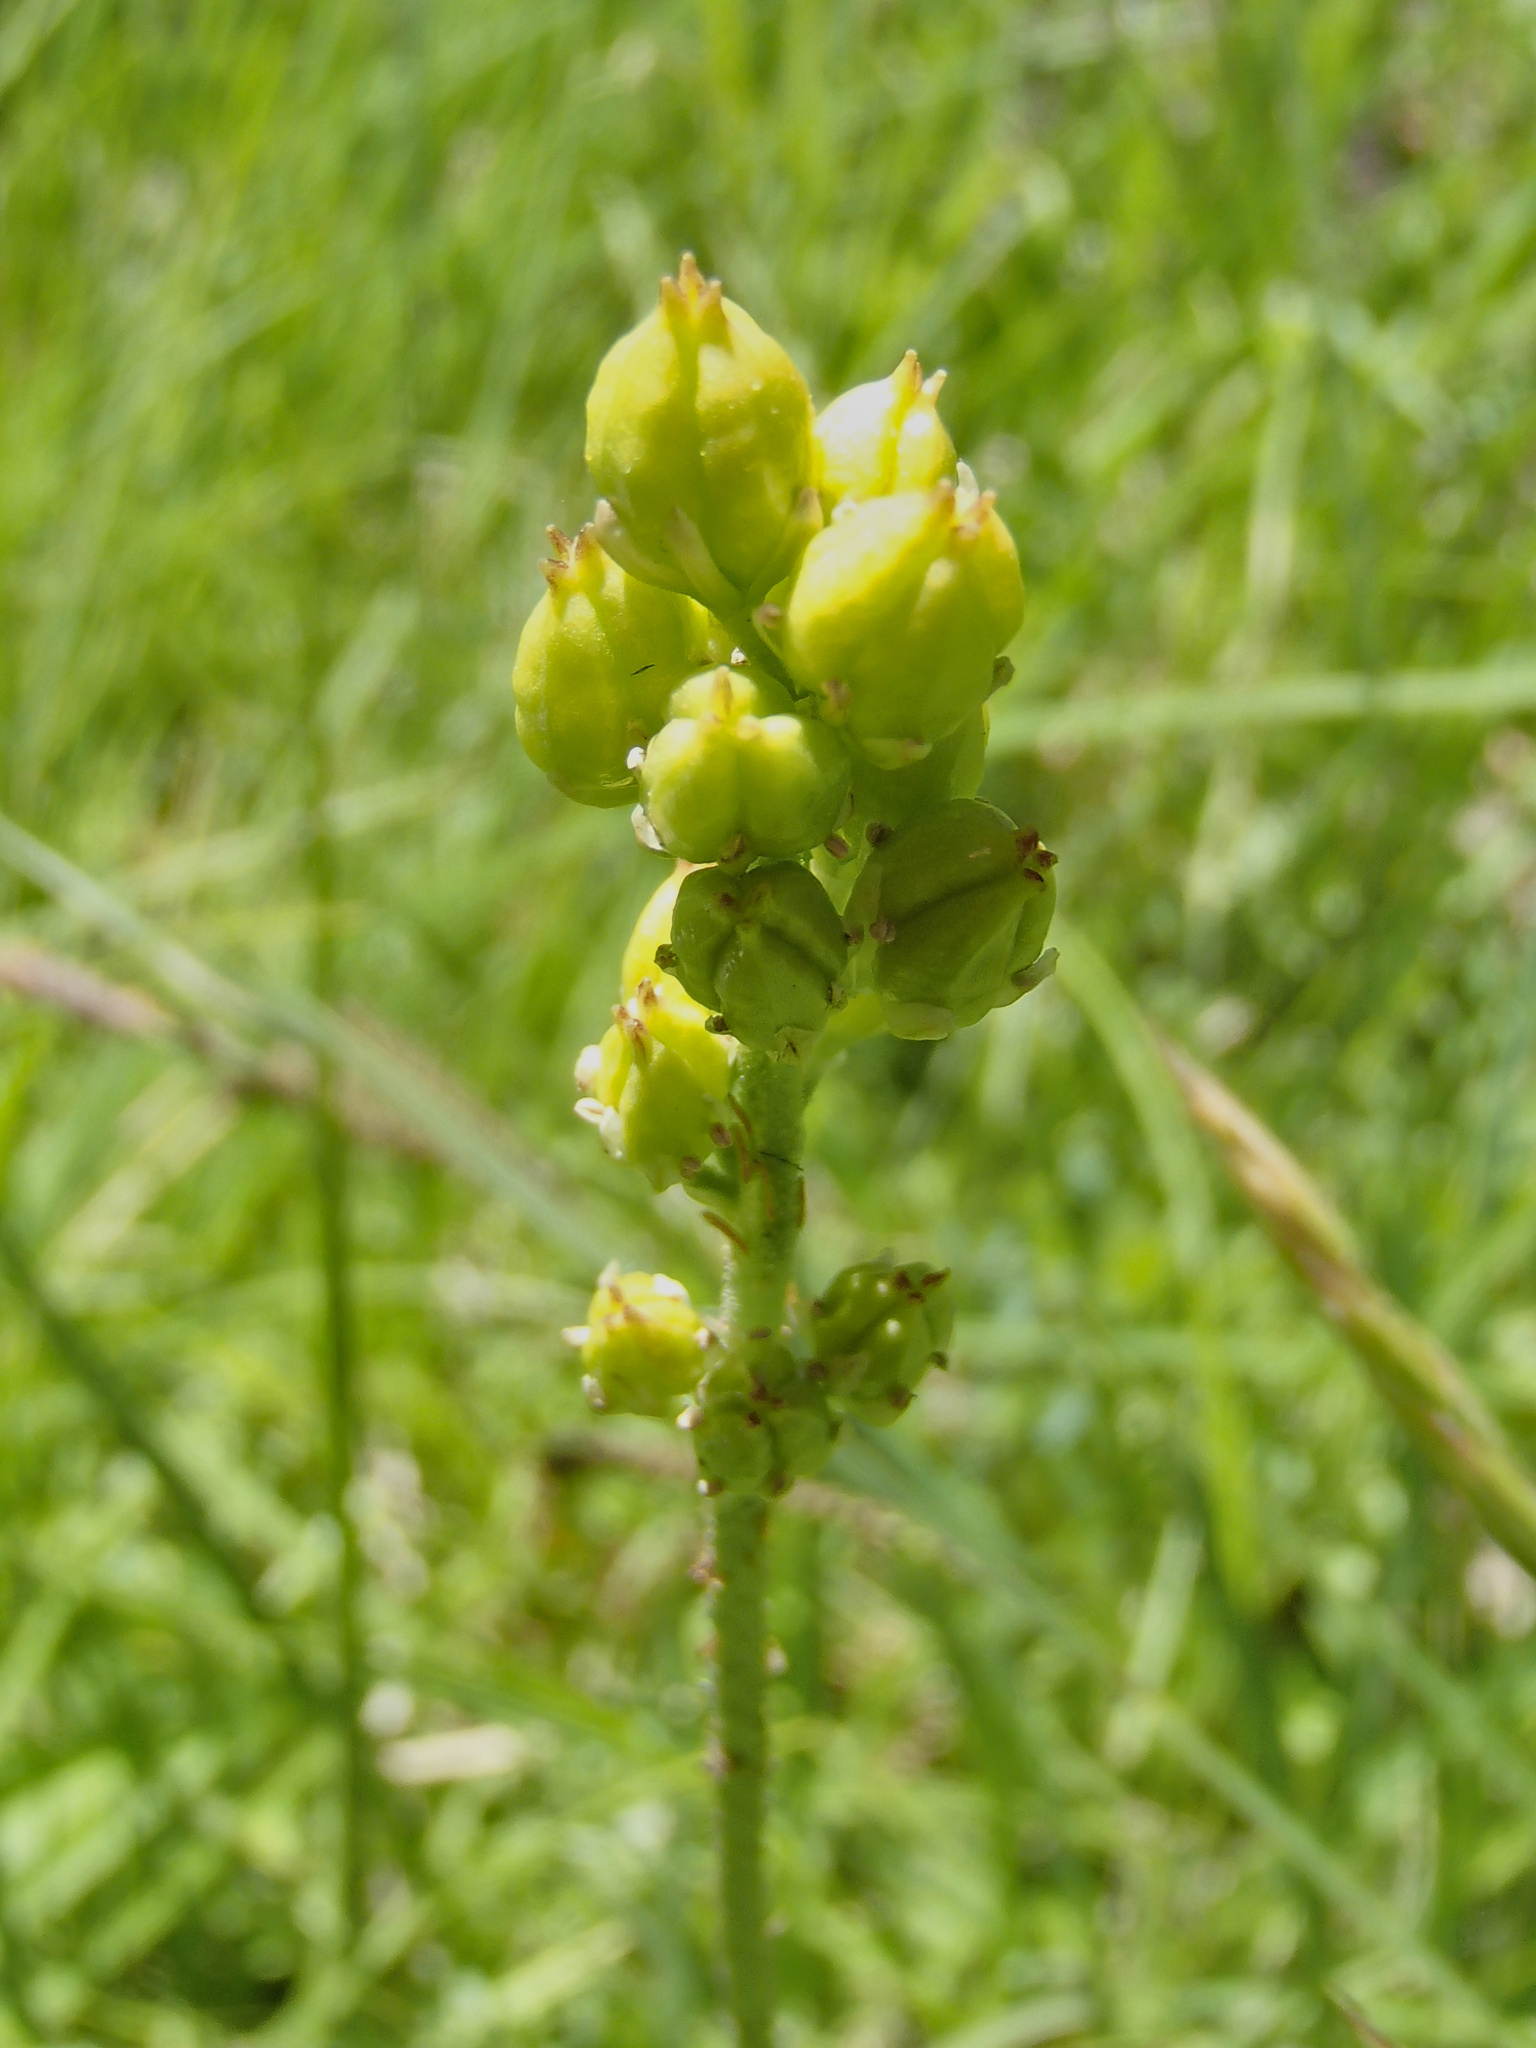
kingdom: Plantae
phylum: Tracheophyta
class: Liliopsida
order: Alismatales
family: Tofieldiaceae
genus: Triantha
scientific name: Triantha occidentalis
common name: Western false asphodel
